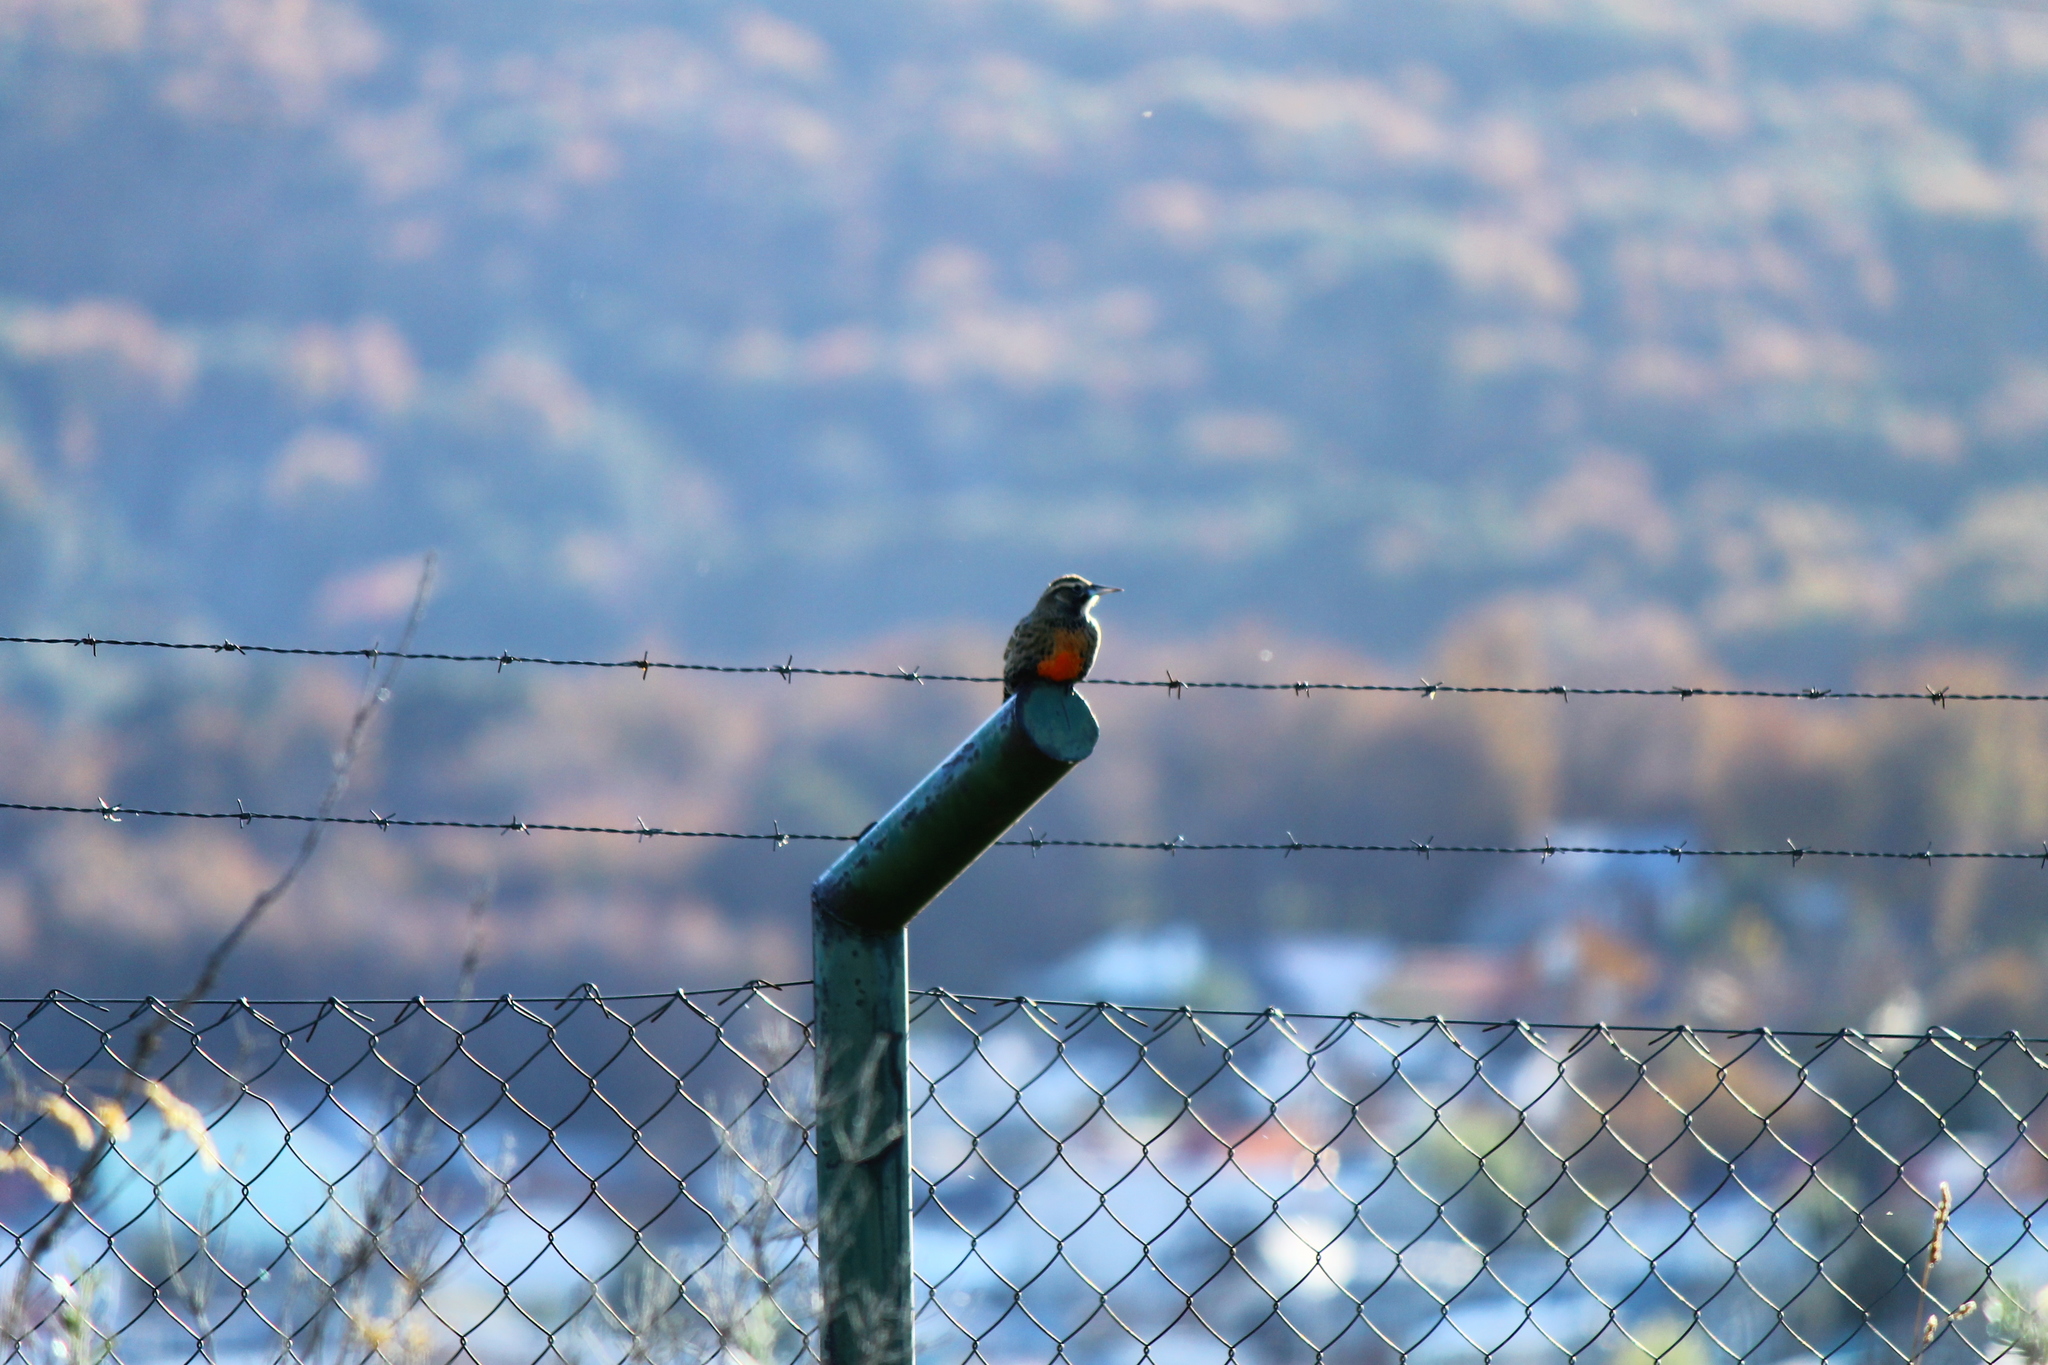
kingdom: Animalia
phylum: Chordata
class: Aves
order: Passeriformes
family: Icteridae
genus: Sturnella
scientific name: Sturnella loyca
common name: Long-tailed meadowlark
